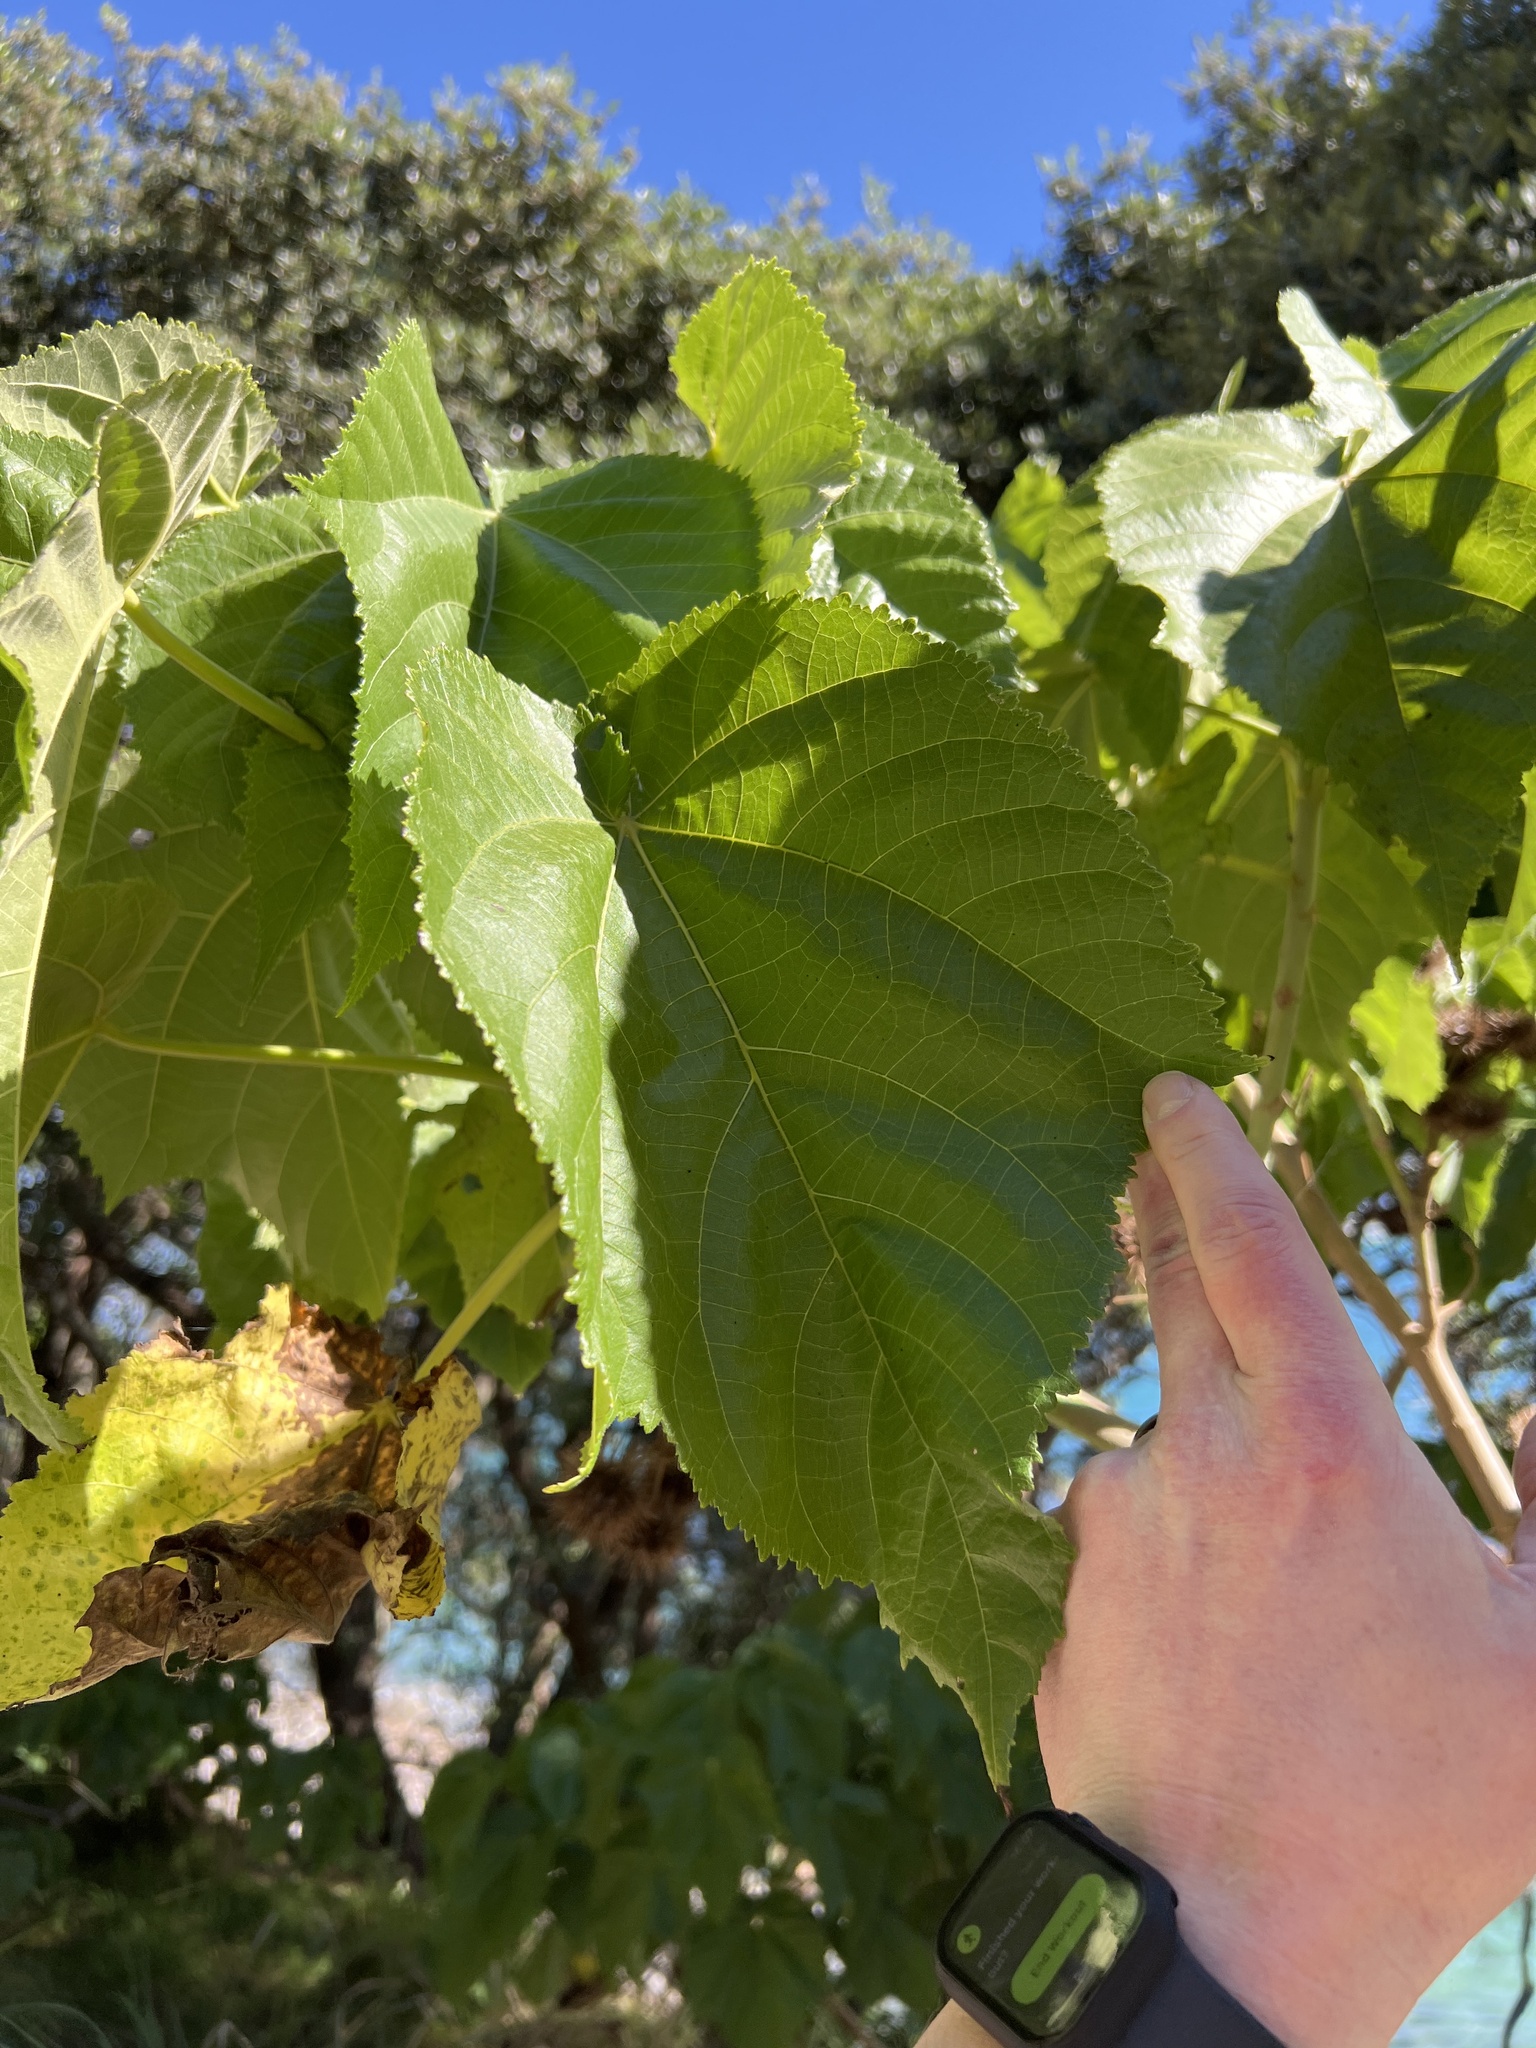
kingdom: Plantae
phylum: Tracheophyta
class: Magnoliopsida
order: Malvales
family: Malvaceae
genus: Entelea
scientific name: Entelea arborescens
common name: New zealand-mulberry
